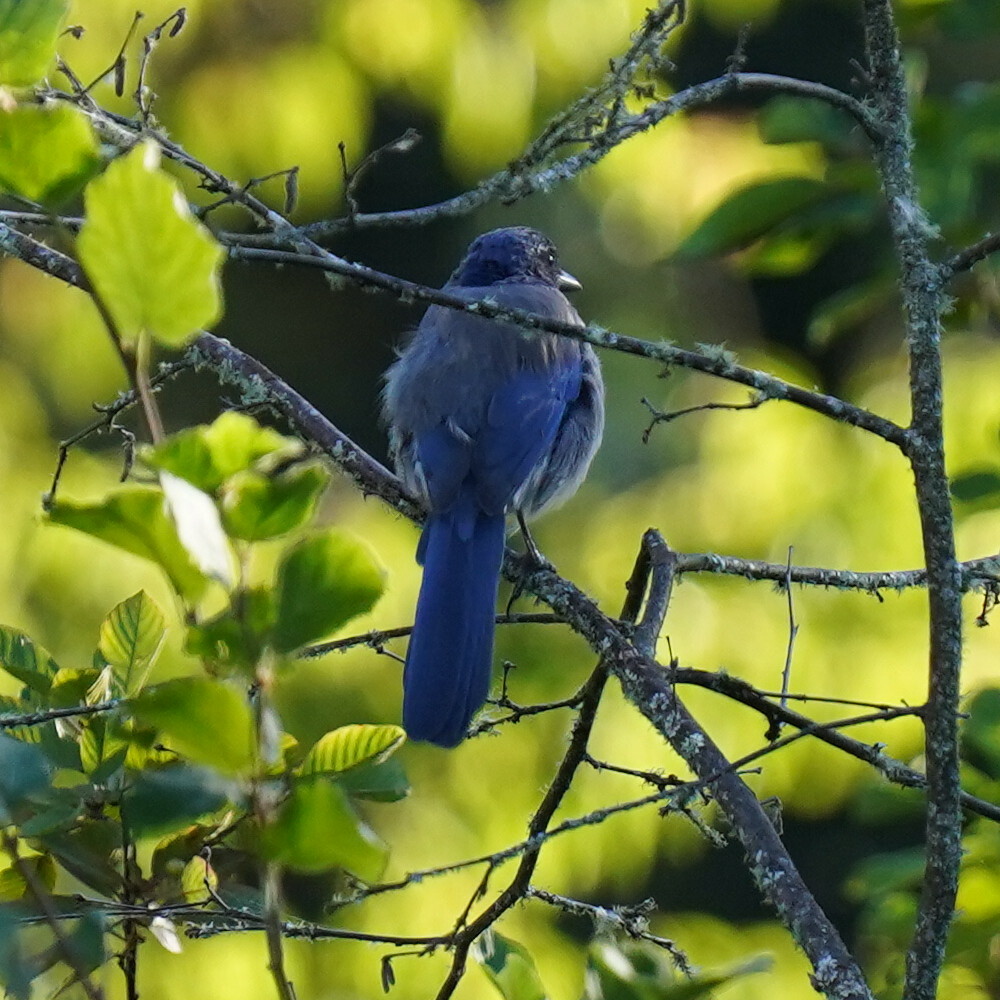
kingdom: Animalia
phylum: Chordata
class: Aves
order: Passeriformes
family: Corvidae
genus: Aphelocoma
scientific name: Aphelocoma californica
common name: California scrub-jay
